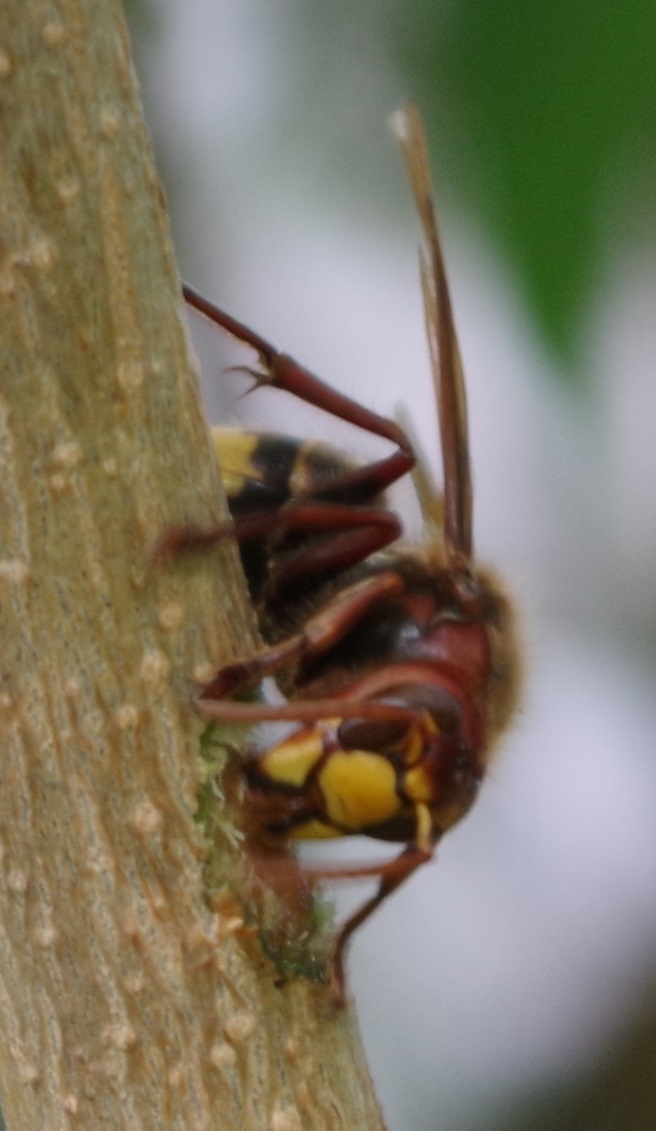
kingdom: Animalia
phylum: Arthropoda
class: Insecta
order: Hymenoptera
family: Vespidae
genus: Vespa
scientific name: Vespa crabro
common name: Hornet
